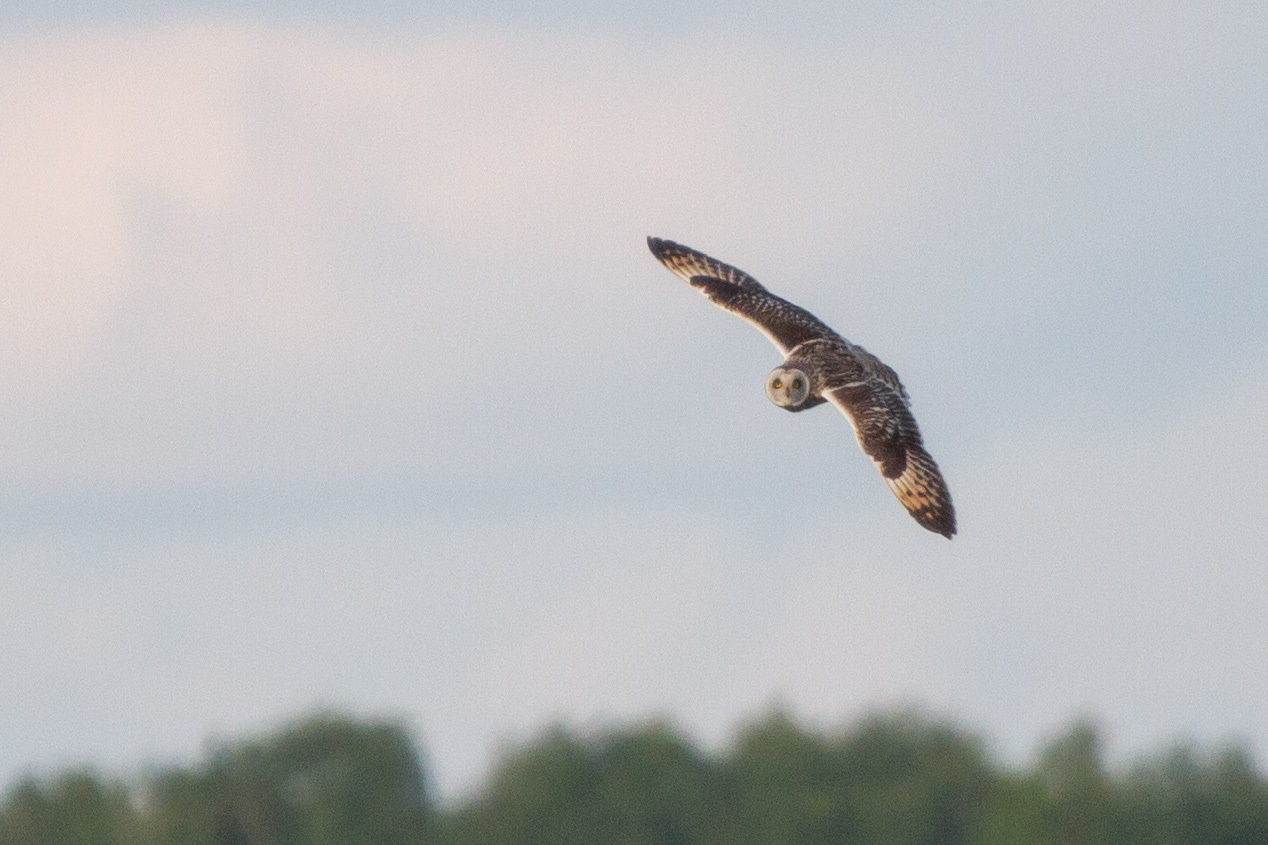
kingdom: Animalia
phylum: Chordata
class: Aves
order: Strigiformes
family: Strigidae
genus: Asio
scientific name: Asio flammeus
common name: Short-eared owl
